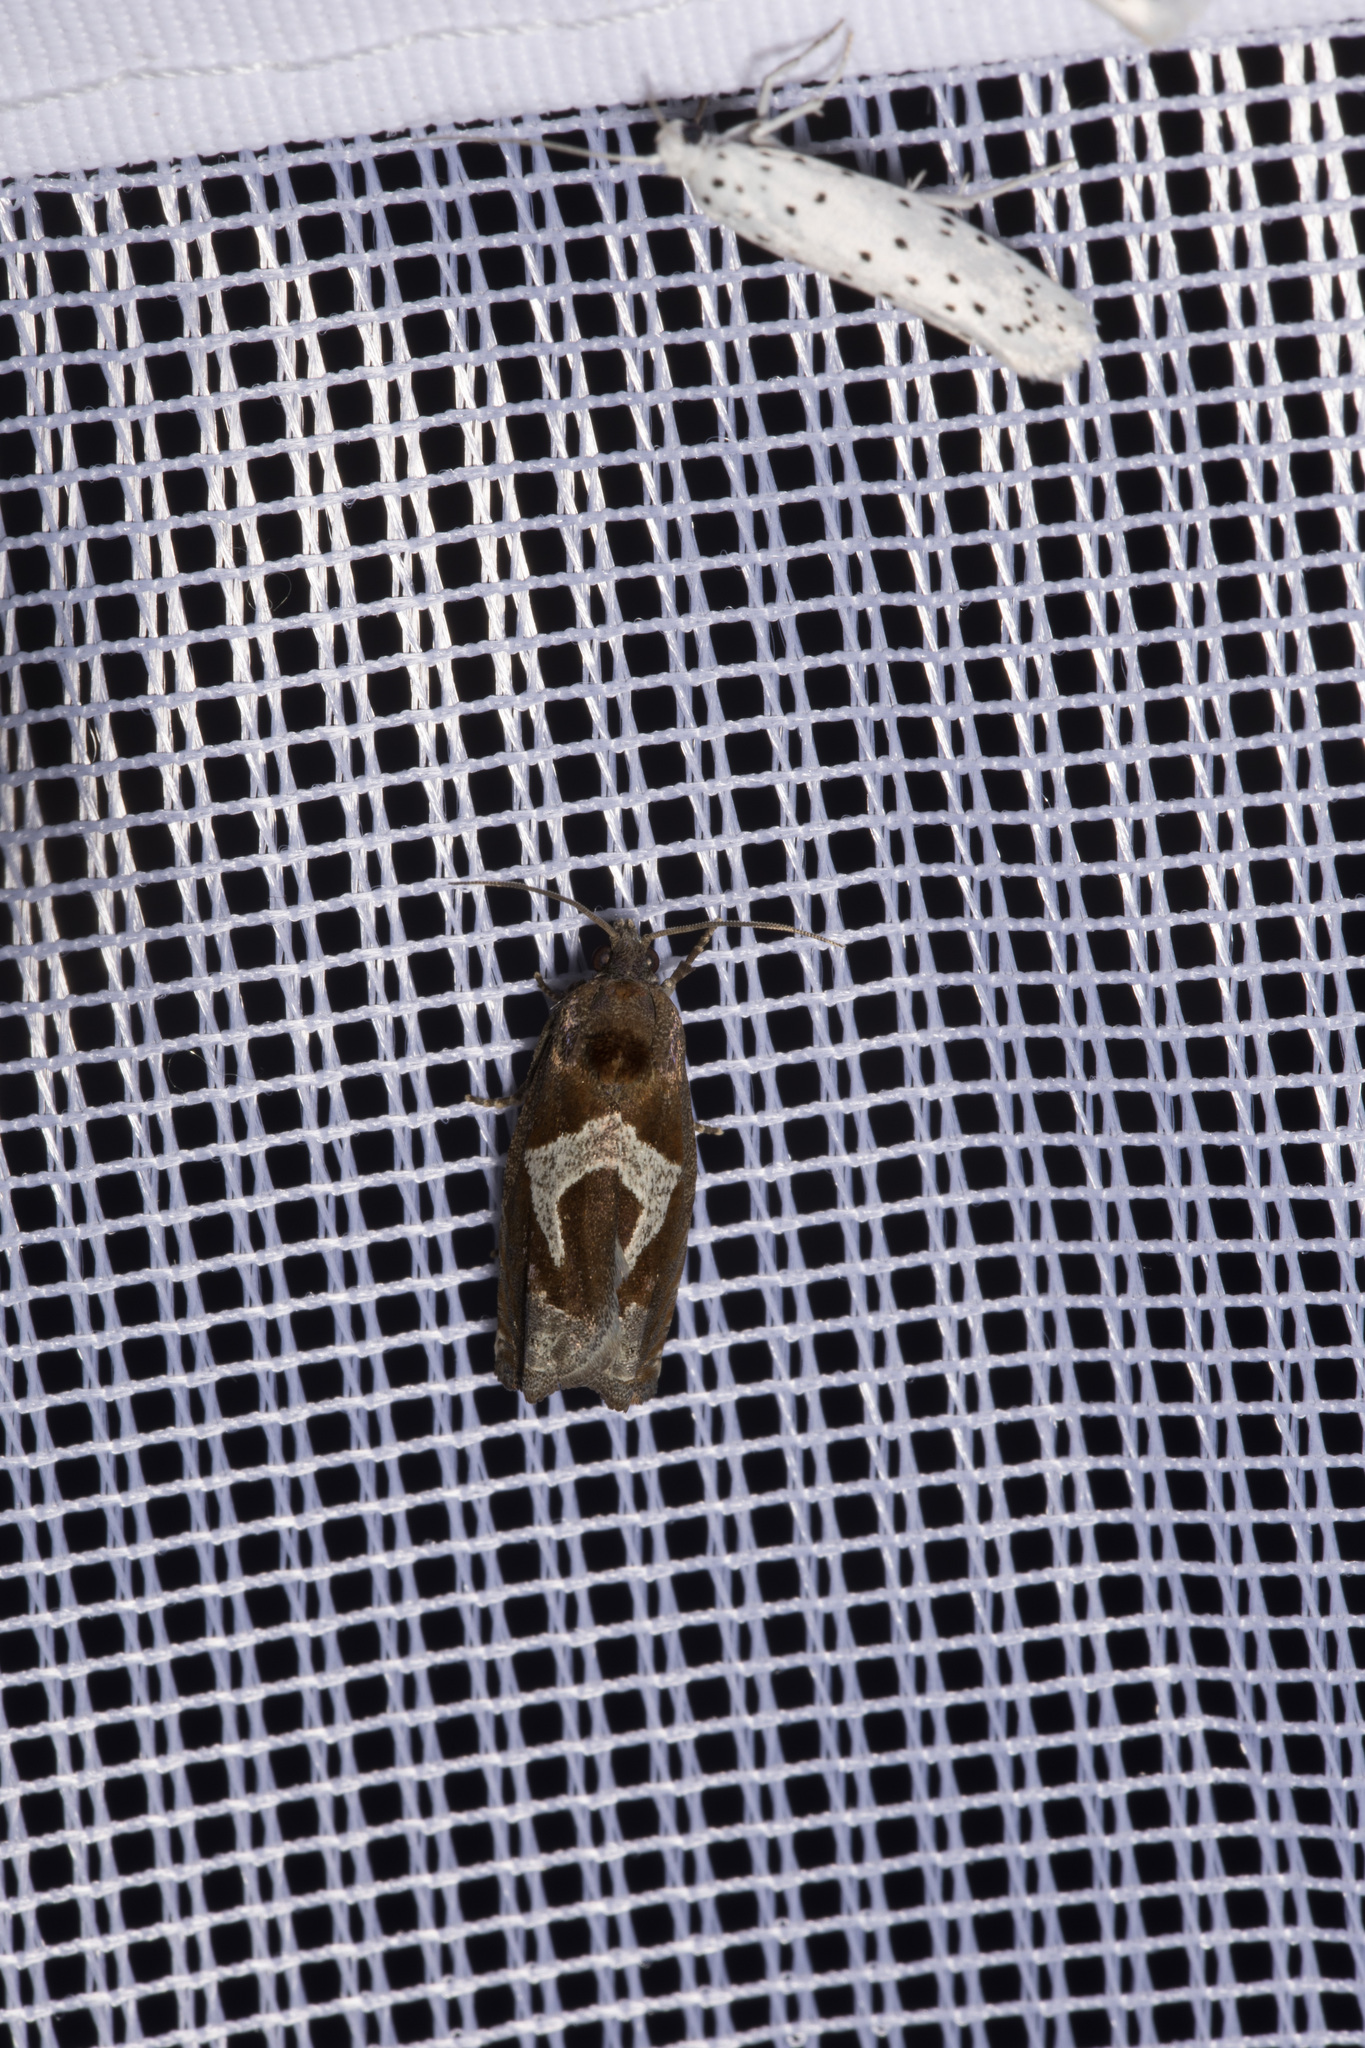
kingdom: Animalia
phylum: Arthropoda
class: Insecta
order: Lepidoptera
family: Tortricidae
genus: Epiblema
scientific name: Epiblema foenella
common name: White-foot bell
